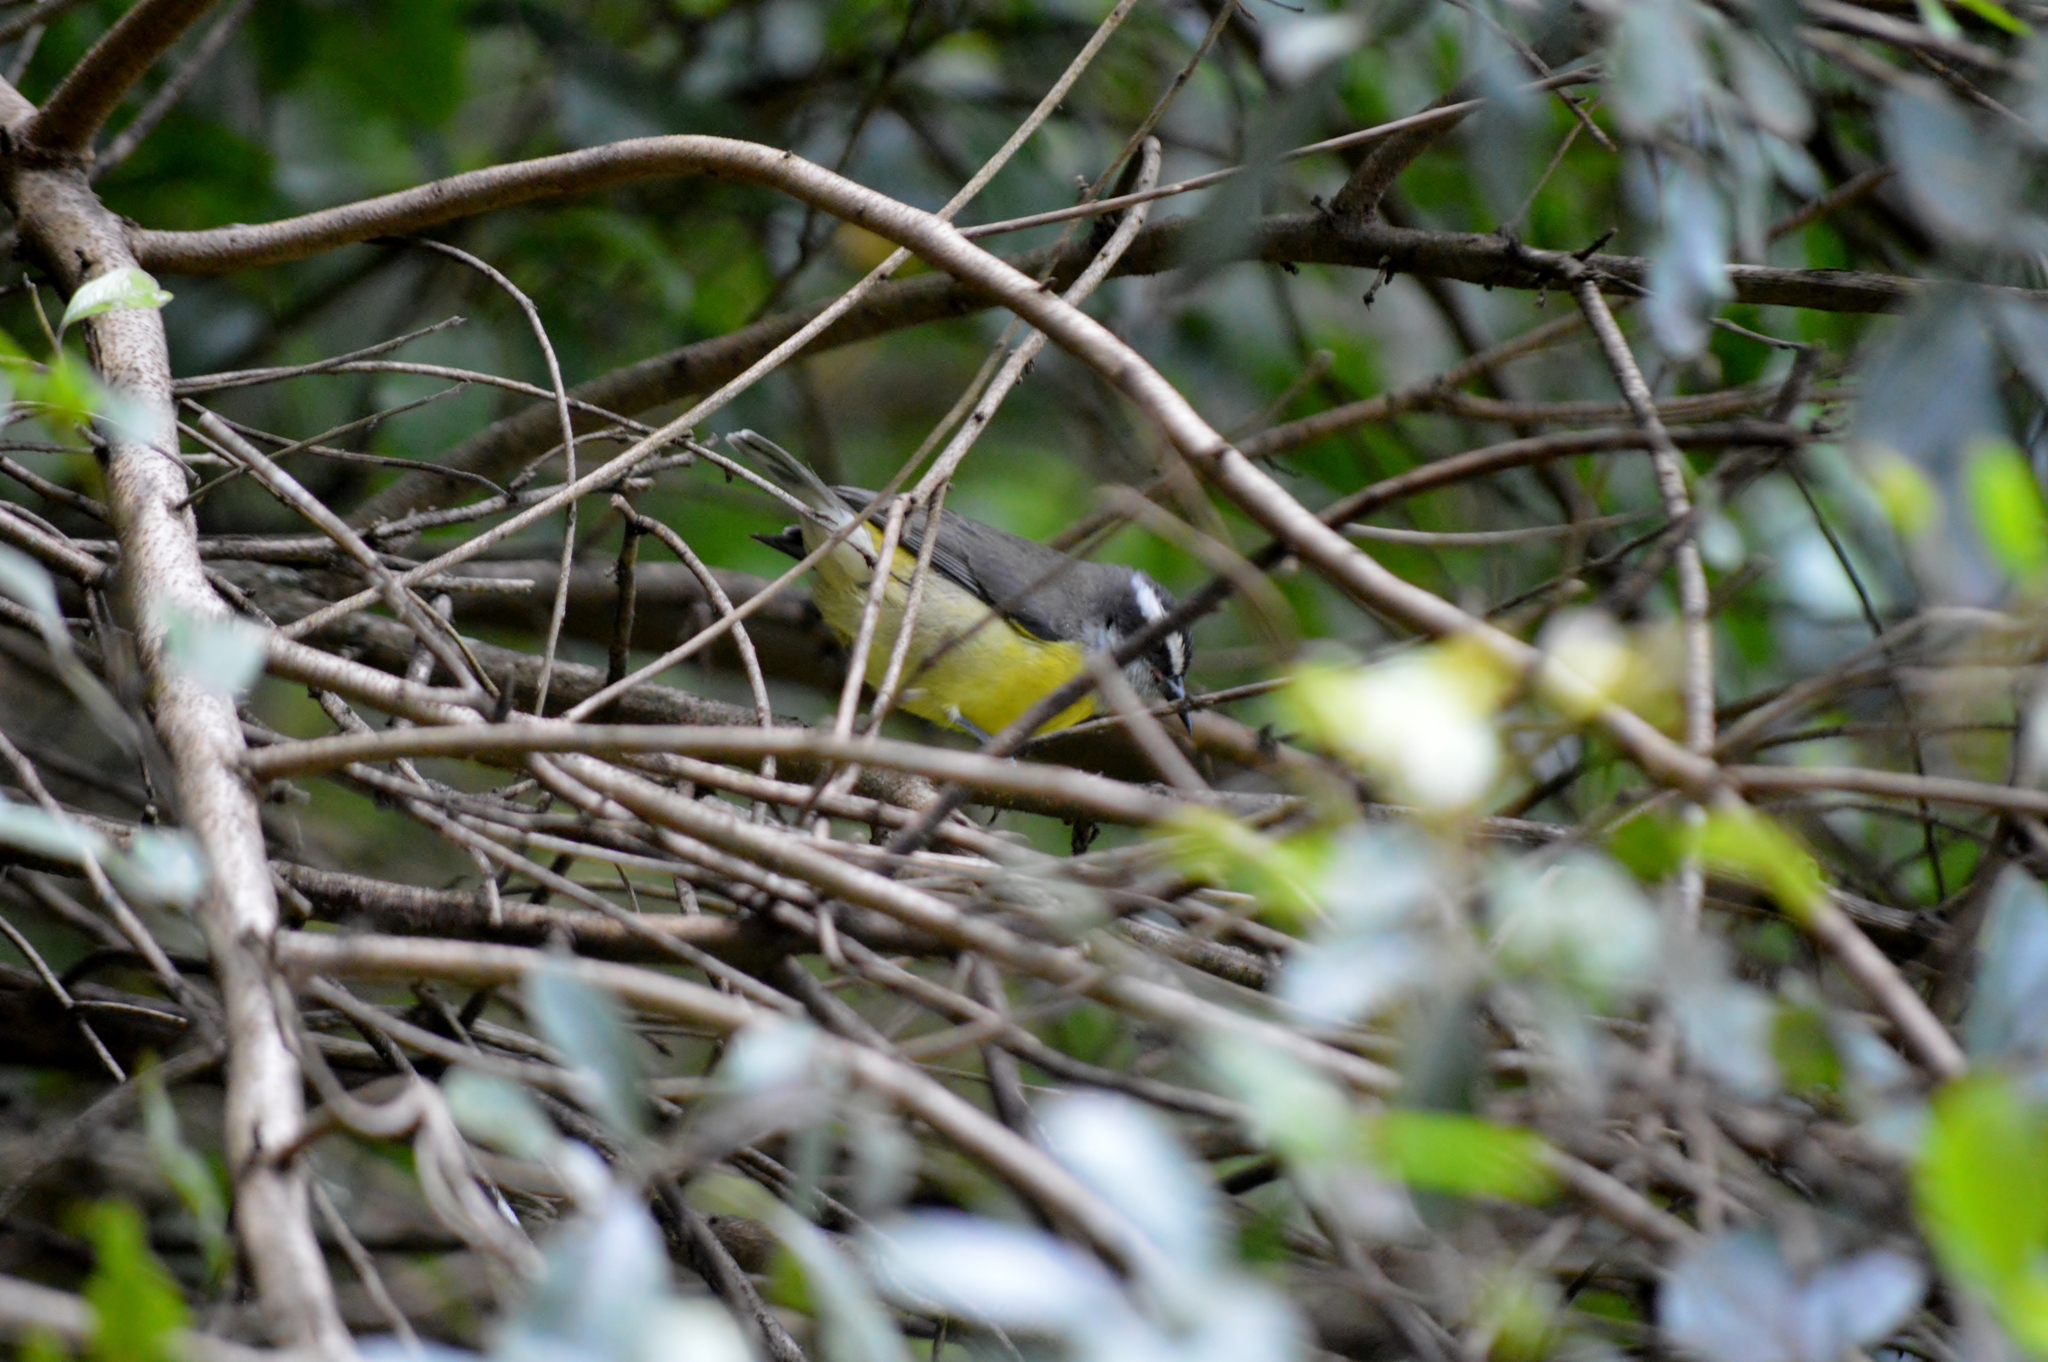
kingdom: Animalia
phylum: Chordata
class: Aves
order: Passeriformes
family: Thraupidae
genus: Coereba
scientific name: Coereba flaveola
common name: Bananaquit
